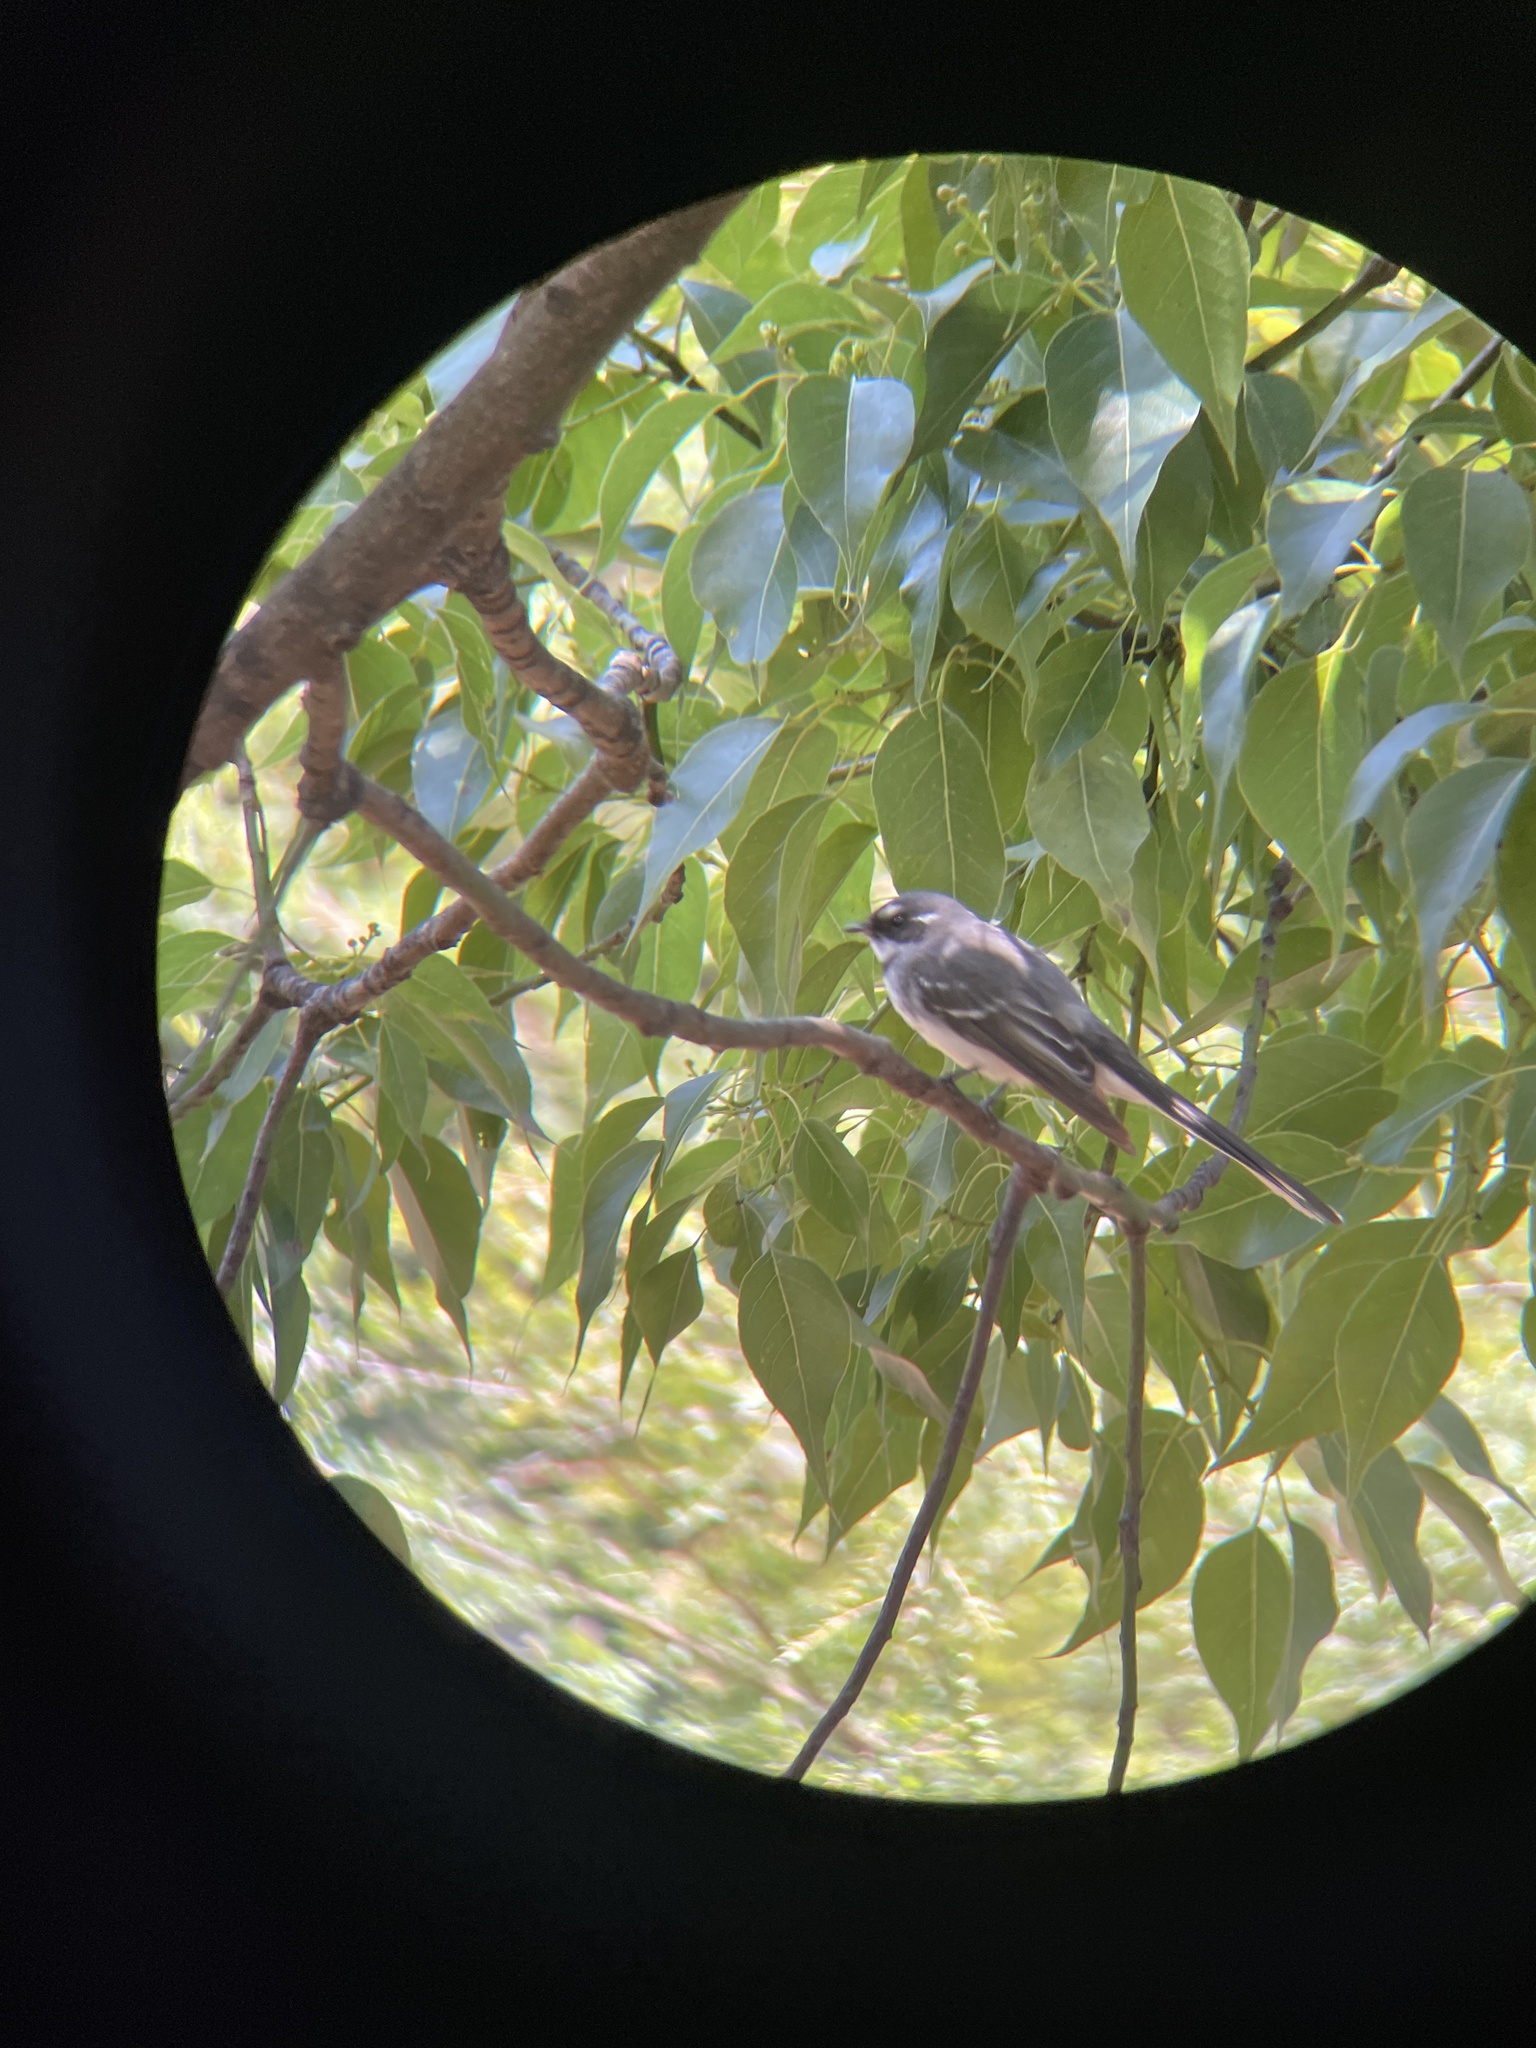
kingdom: Animalia
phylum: Chordata
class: Aves
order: Passeriformes
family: Rhipiduridae
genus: Rhipidura
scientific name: Rhipidura albiscapa
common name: Grey fantail
